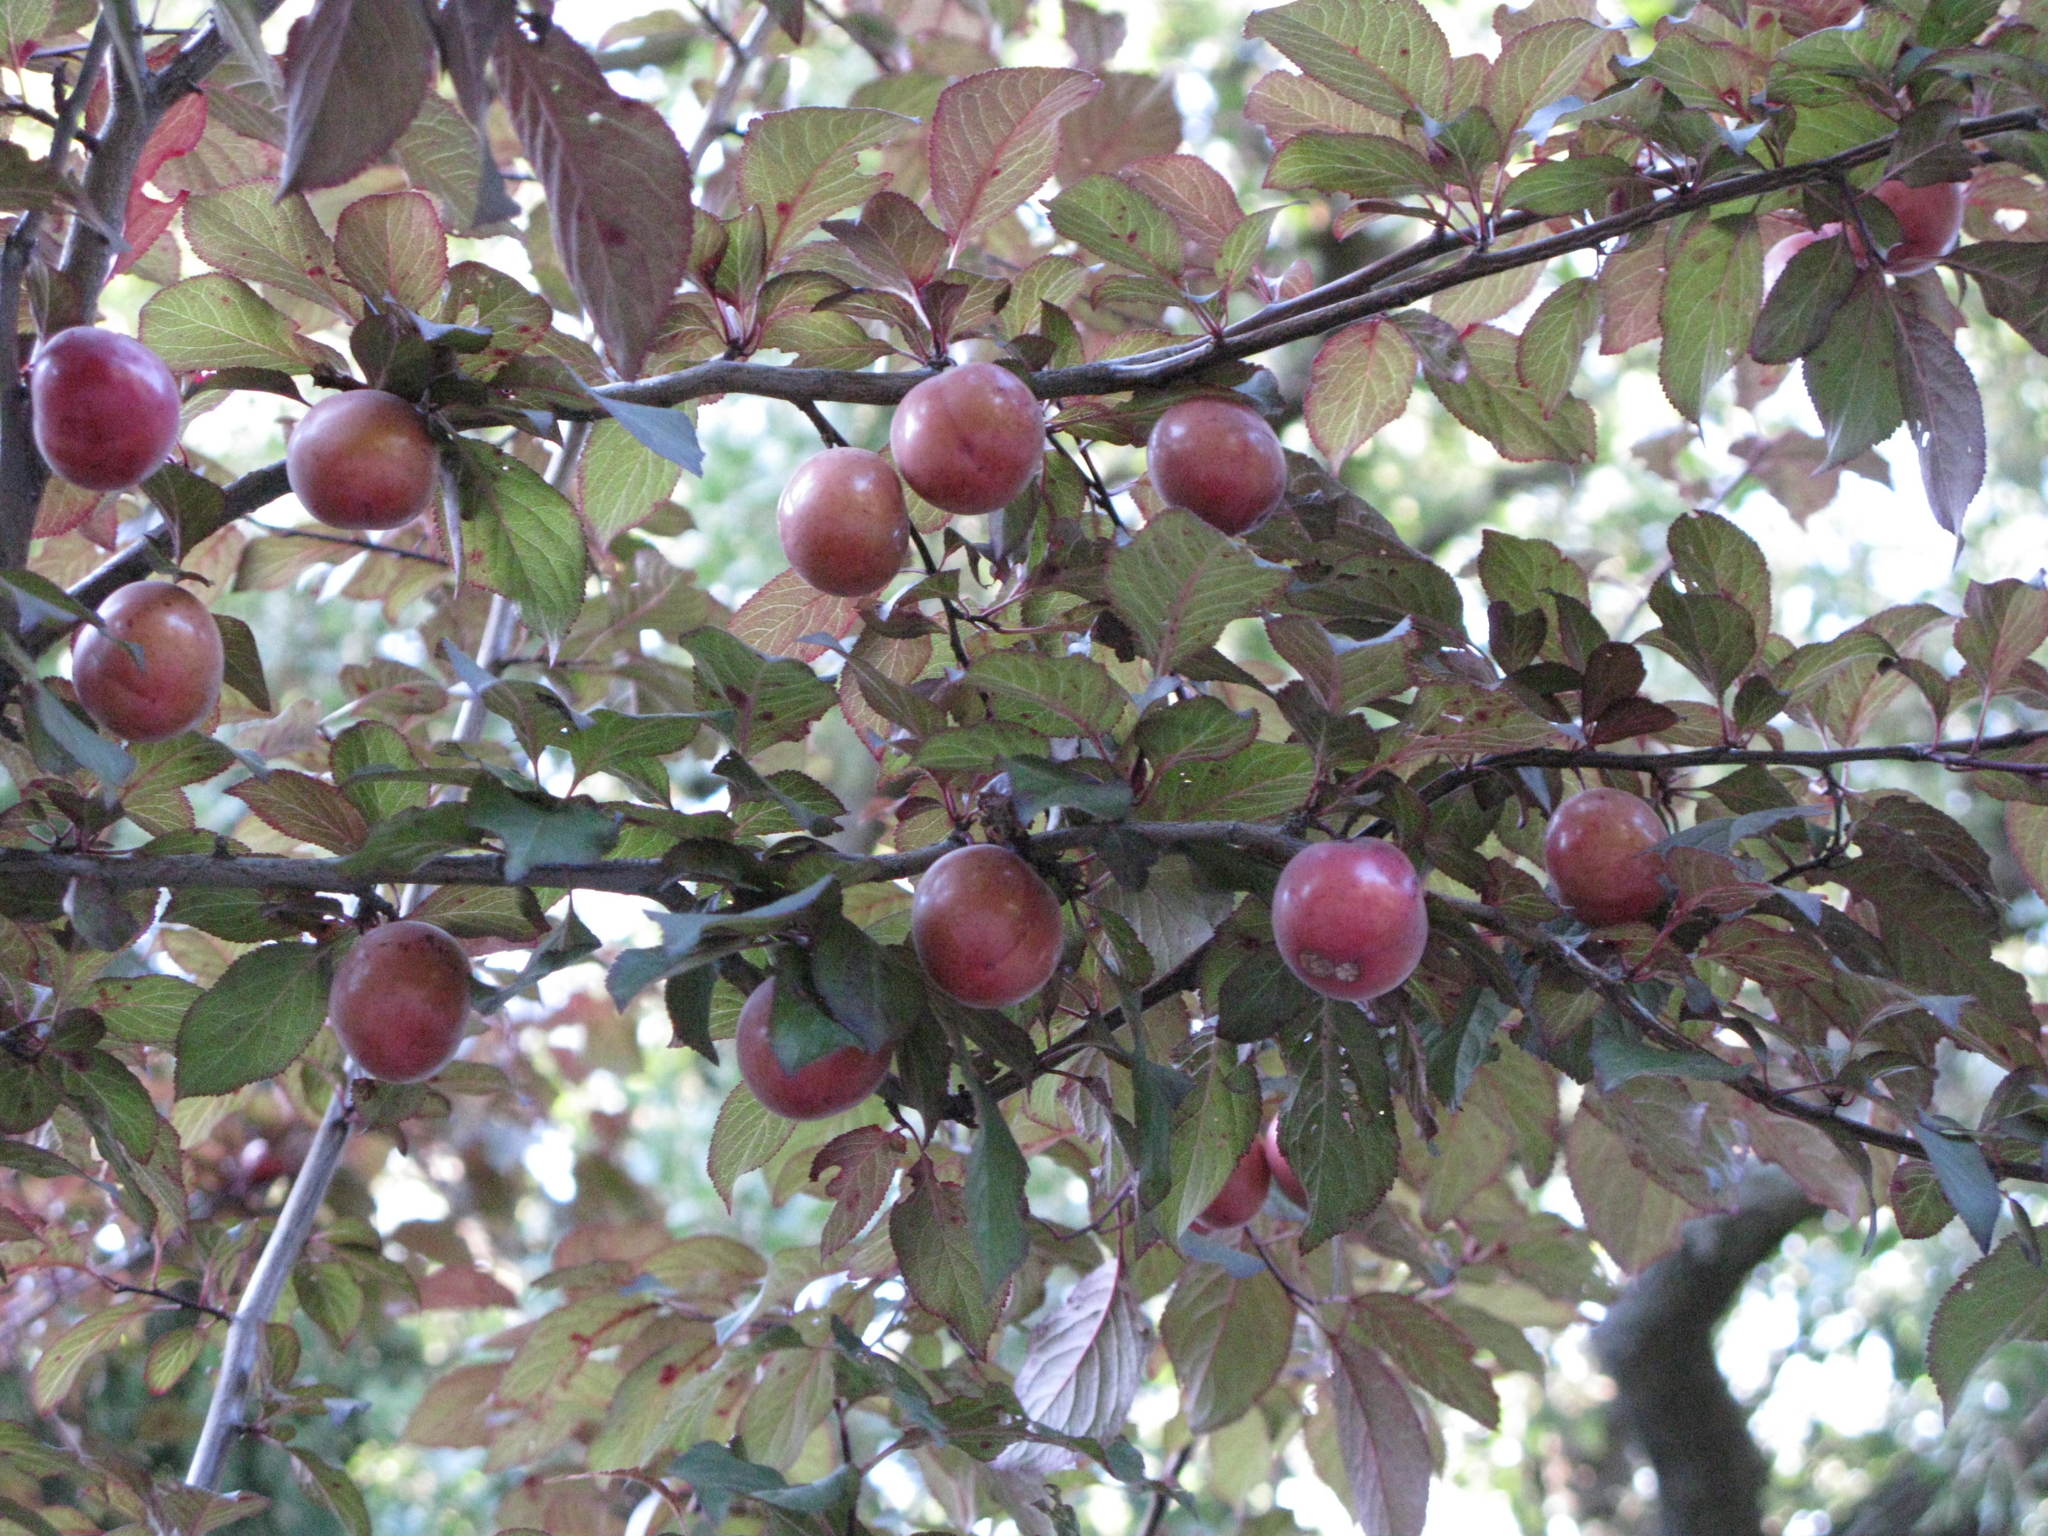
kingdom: Plantae
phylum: Tracheophyta
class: Magnoliopsida
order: Rosales
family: Rosaceae
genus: Prunus
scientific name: Prunus cerasifera
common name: Cherry plum
